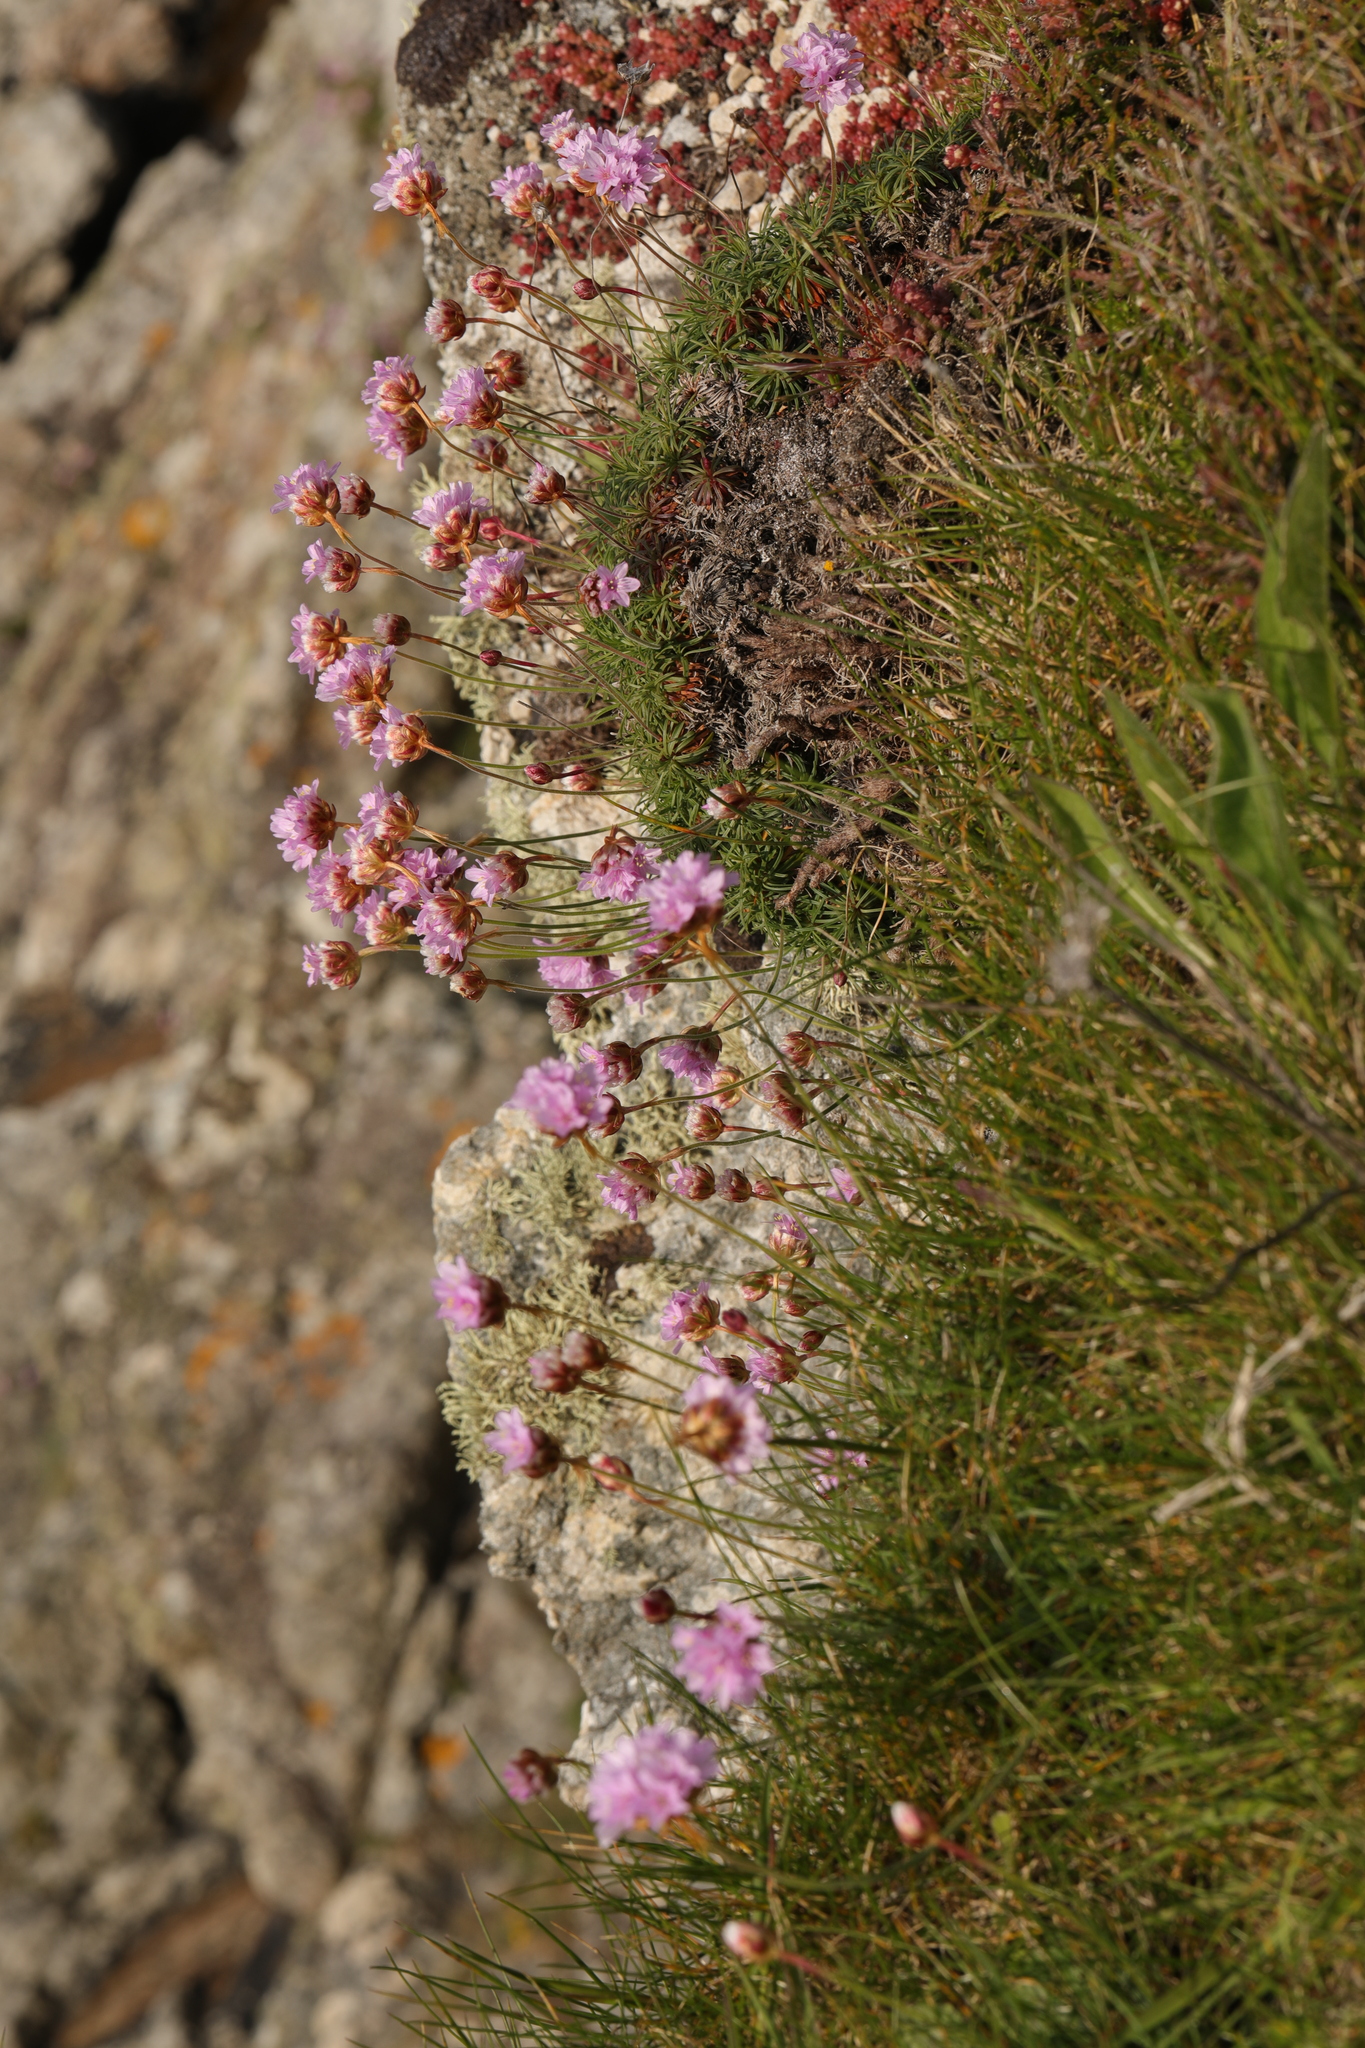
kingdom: Plantae
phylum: Tracheophyta
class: Magnoliopsida
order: Caryophyllales
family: Plumbaginaceae
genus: Armeria
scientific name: Armeria maritima
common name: Thrift
